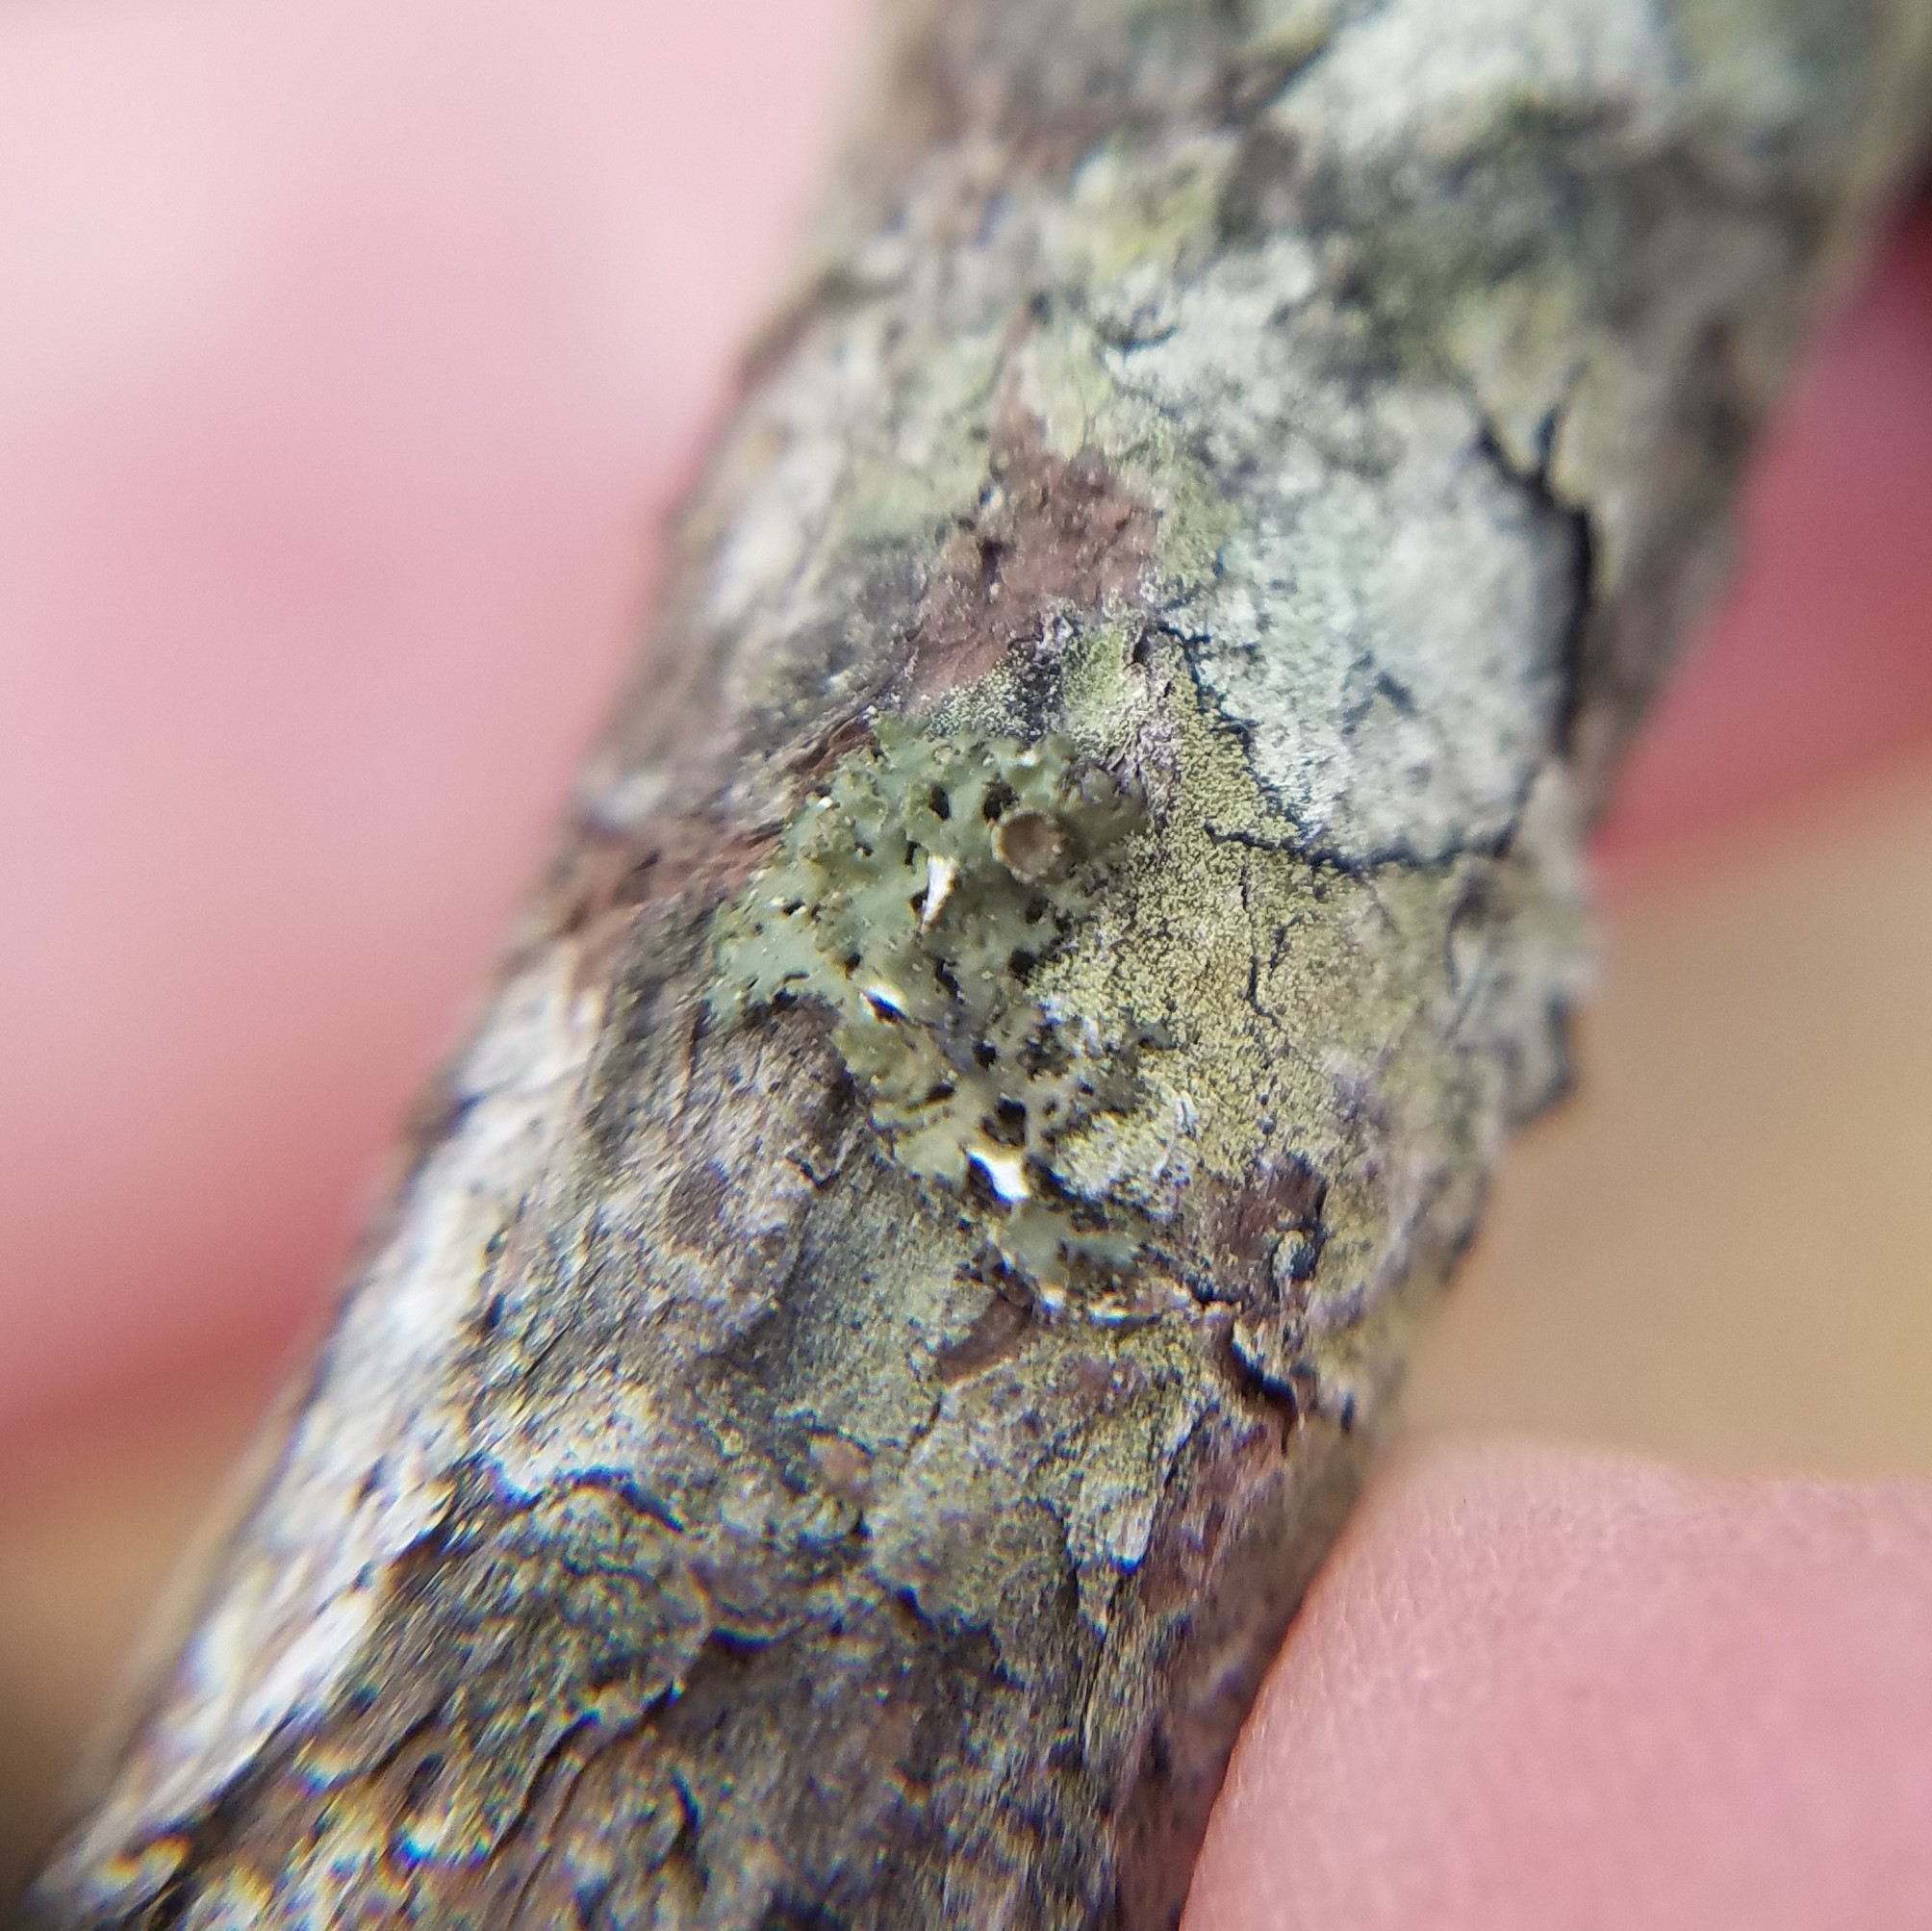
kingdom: Fungi
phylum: Ascomycota
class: Lecanoromycetes
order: Lecanorales
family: Parmeliaceae
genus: Nephromopsis
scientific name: Nephromopsis fendleri
